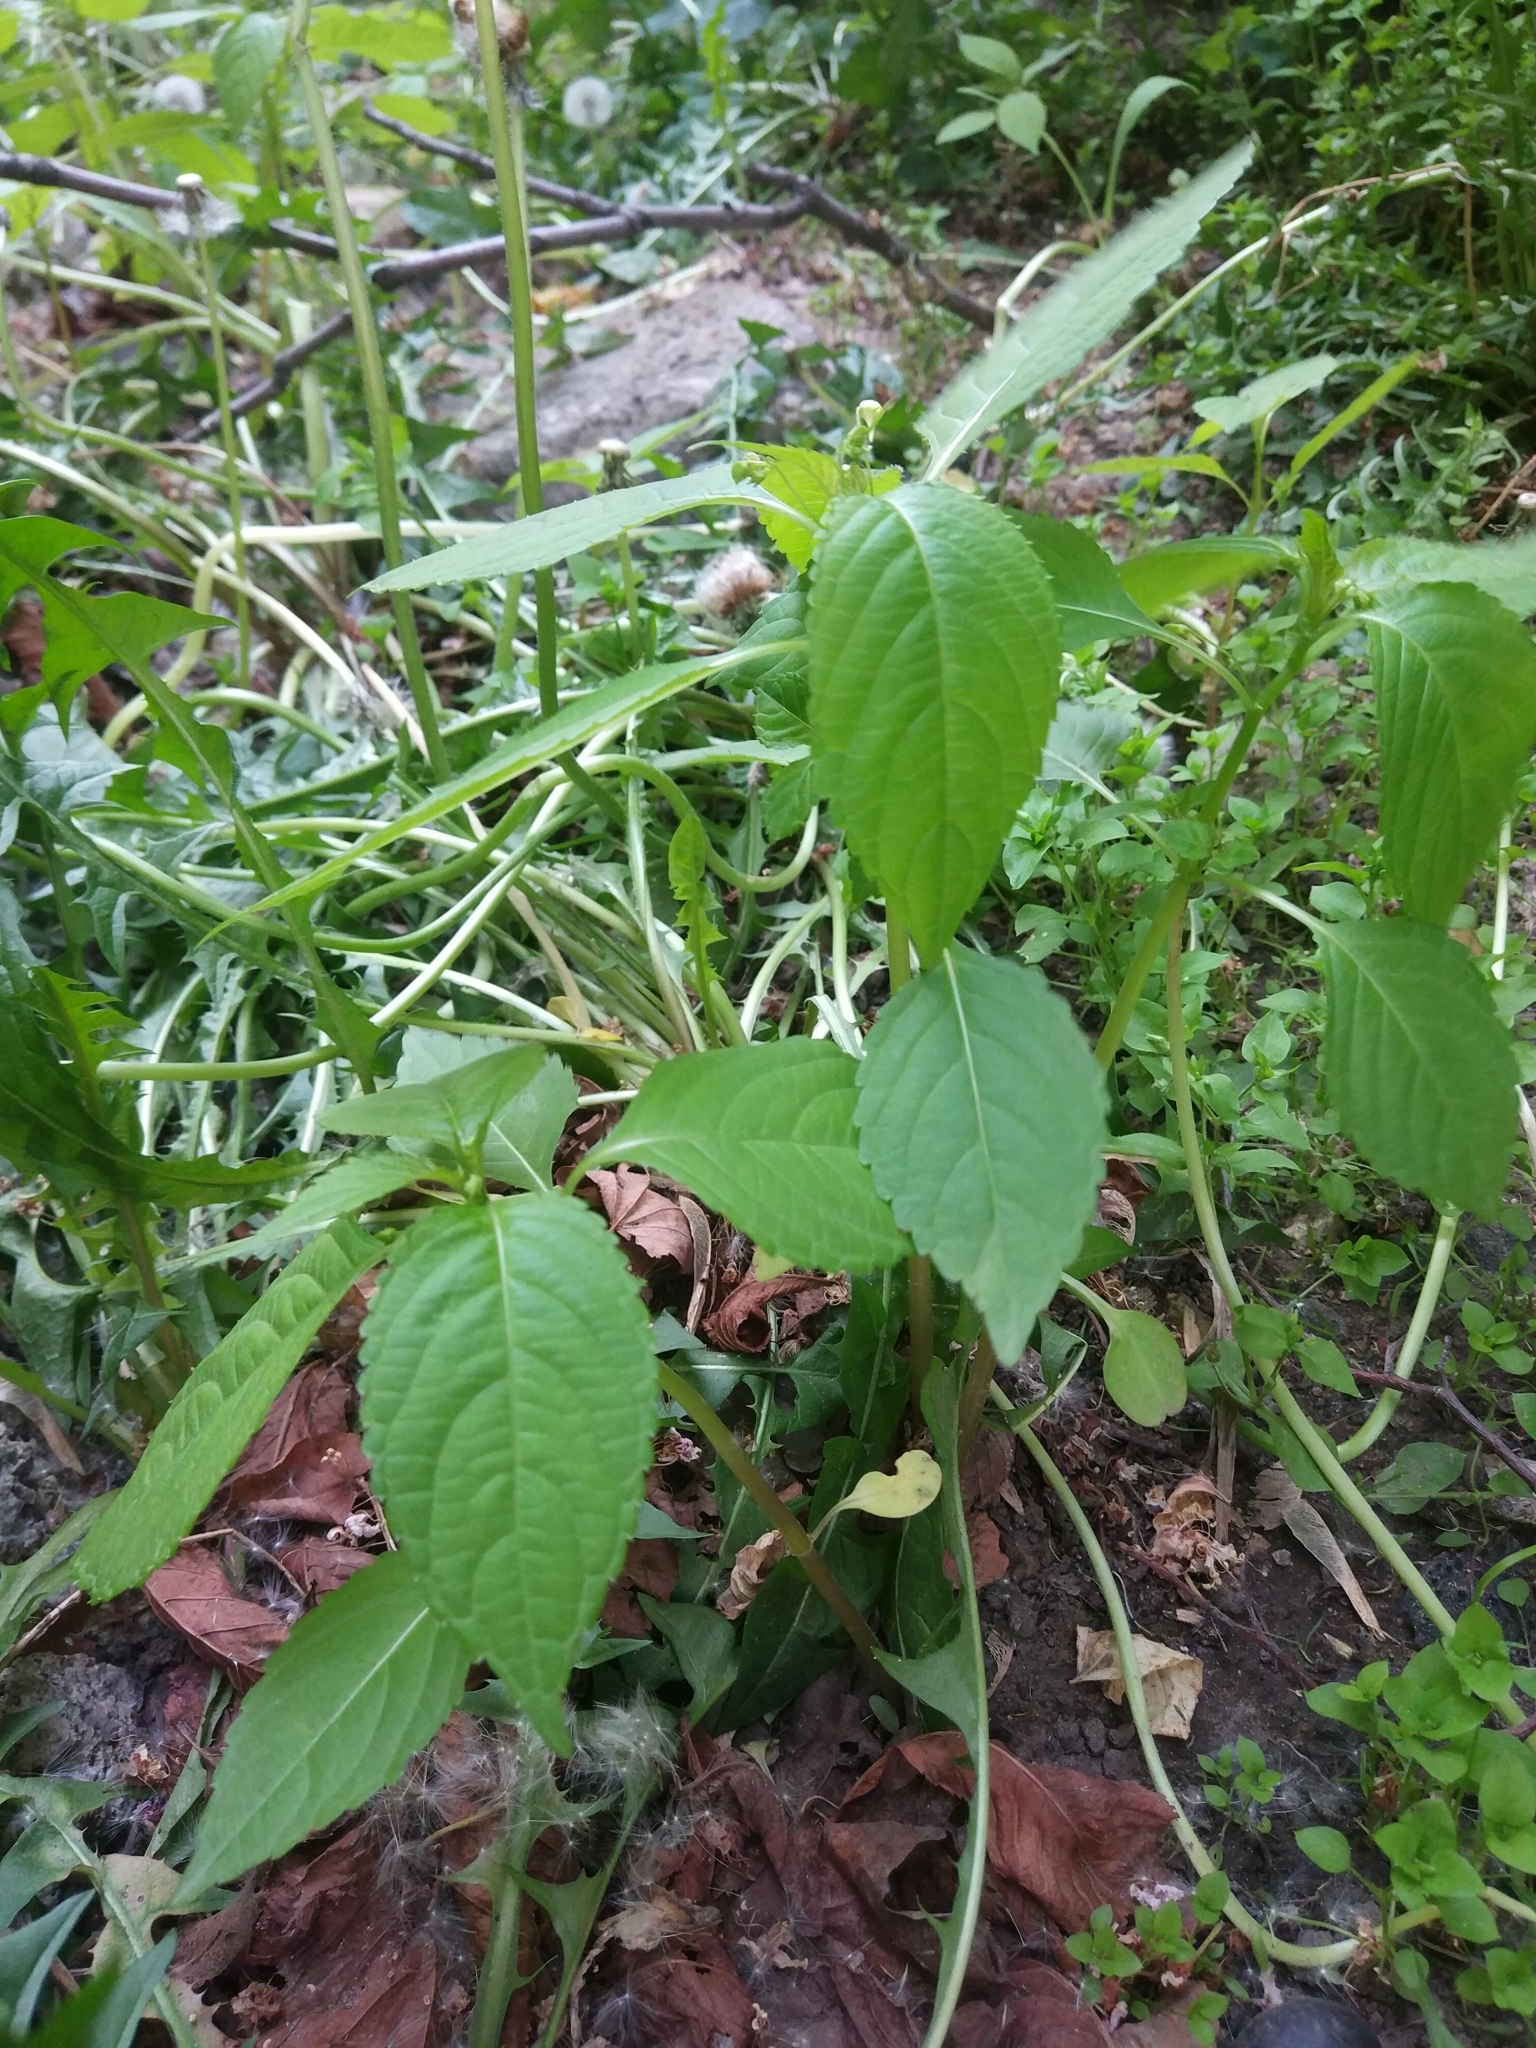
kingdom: Plantae
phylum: Tracheophyta
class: Magnoliopsida
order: Ericales
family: Balsaminaceae
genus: Impatiens
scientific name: Impatiens parviflora
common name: Small balsam
